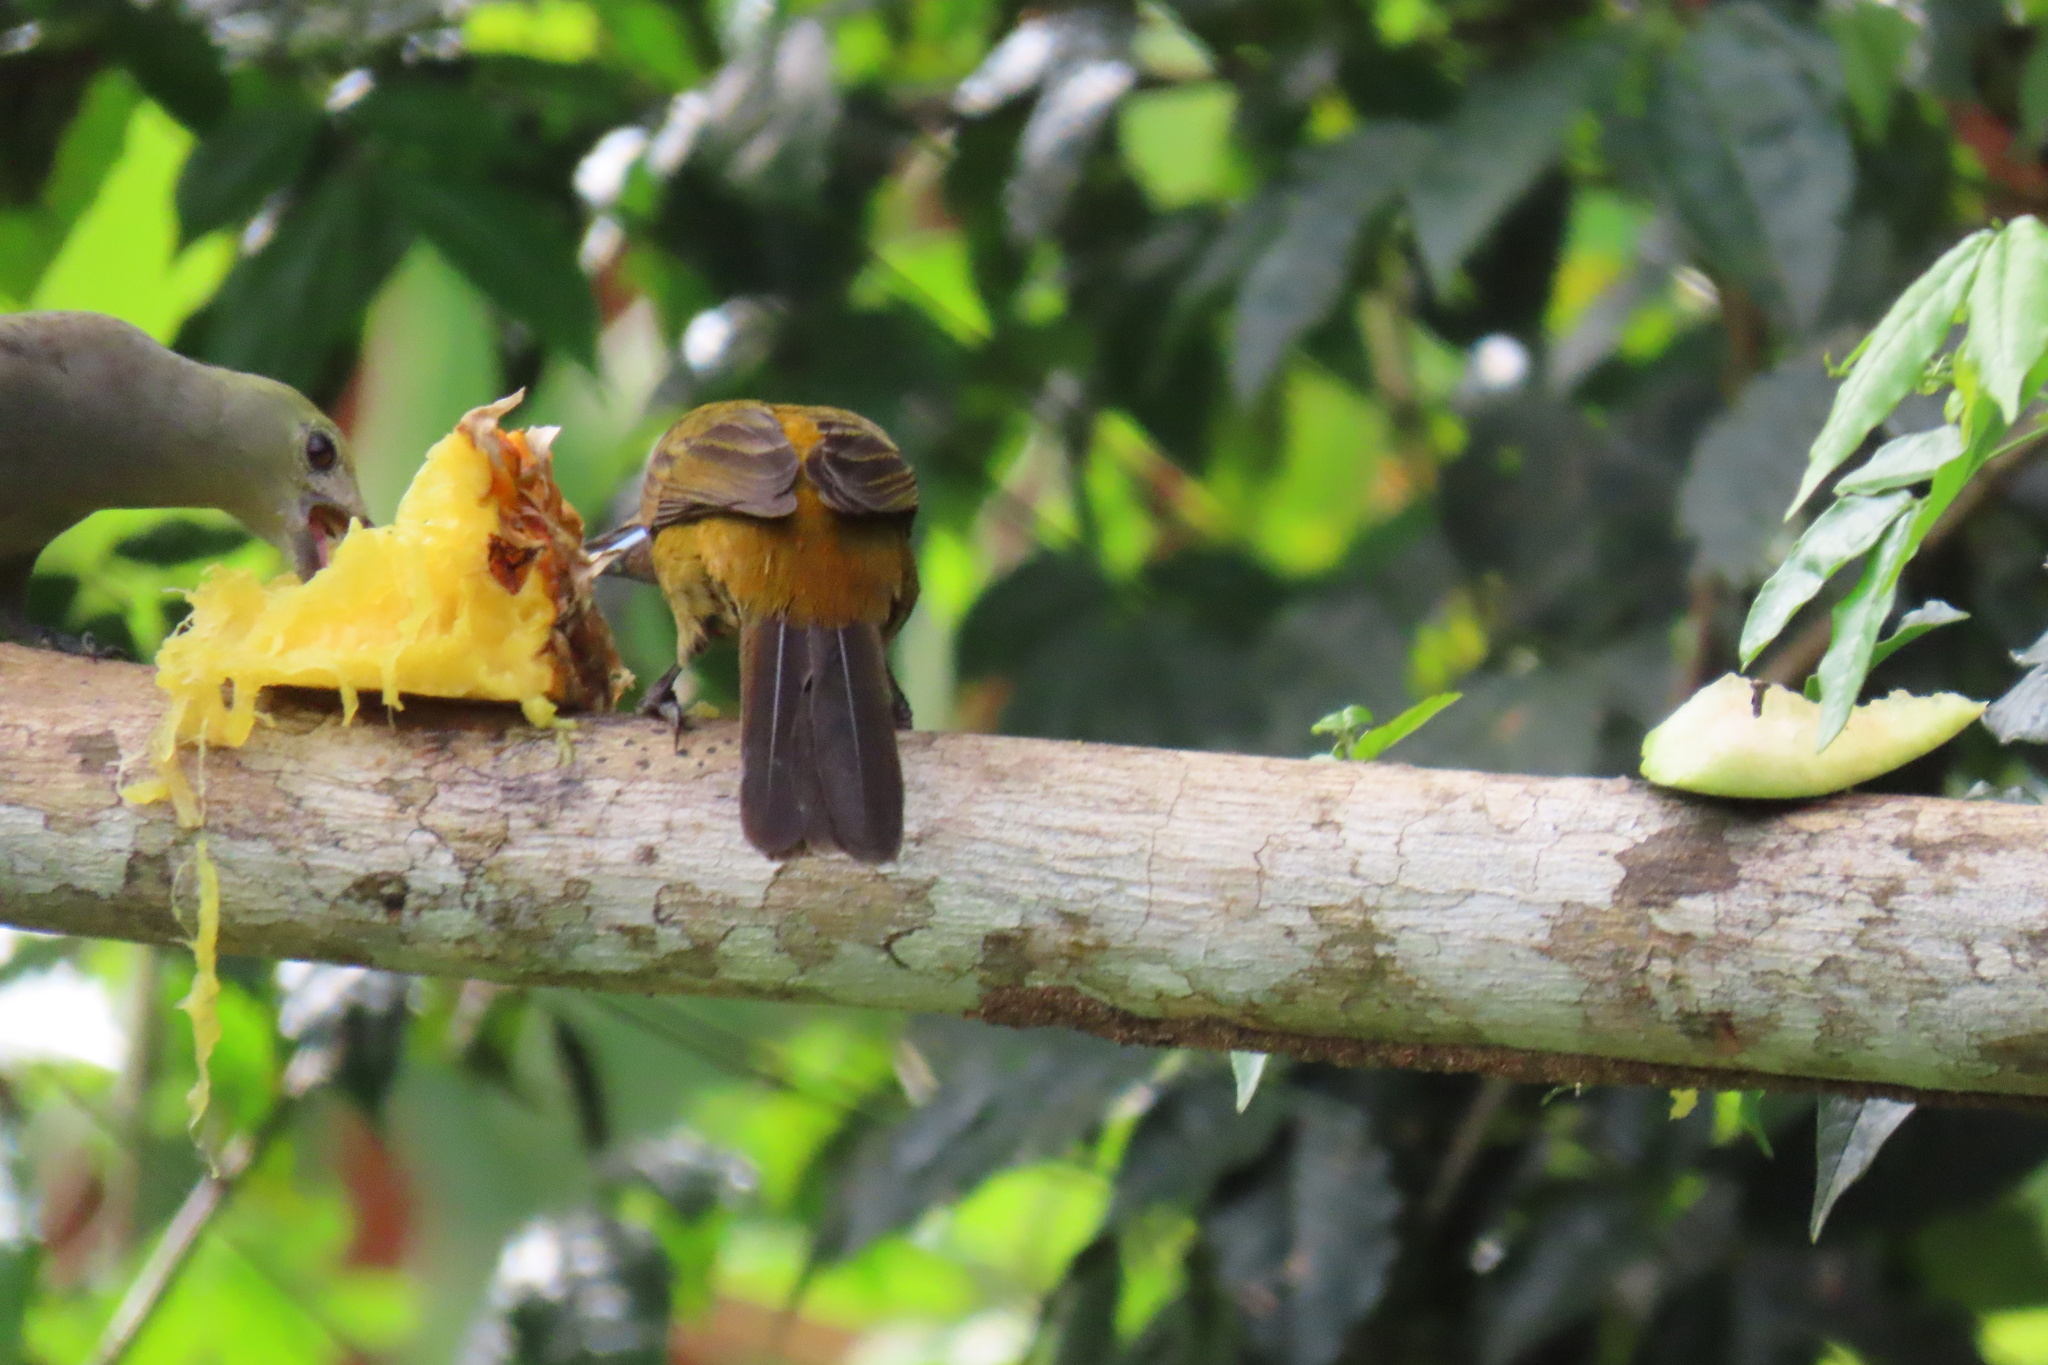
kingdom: Animalia
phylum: Chordata
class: Aves
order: Passeriformes
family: Thraupidae
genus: Ramphocelus
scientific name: Ramphocelus passerinii
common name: Passerini's tanager
